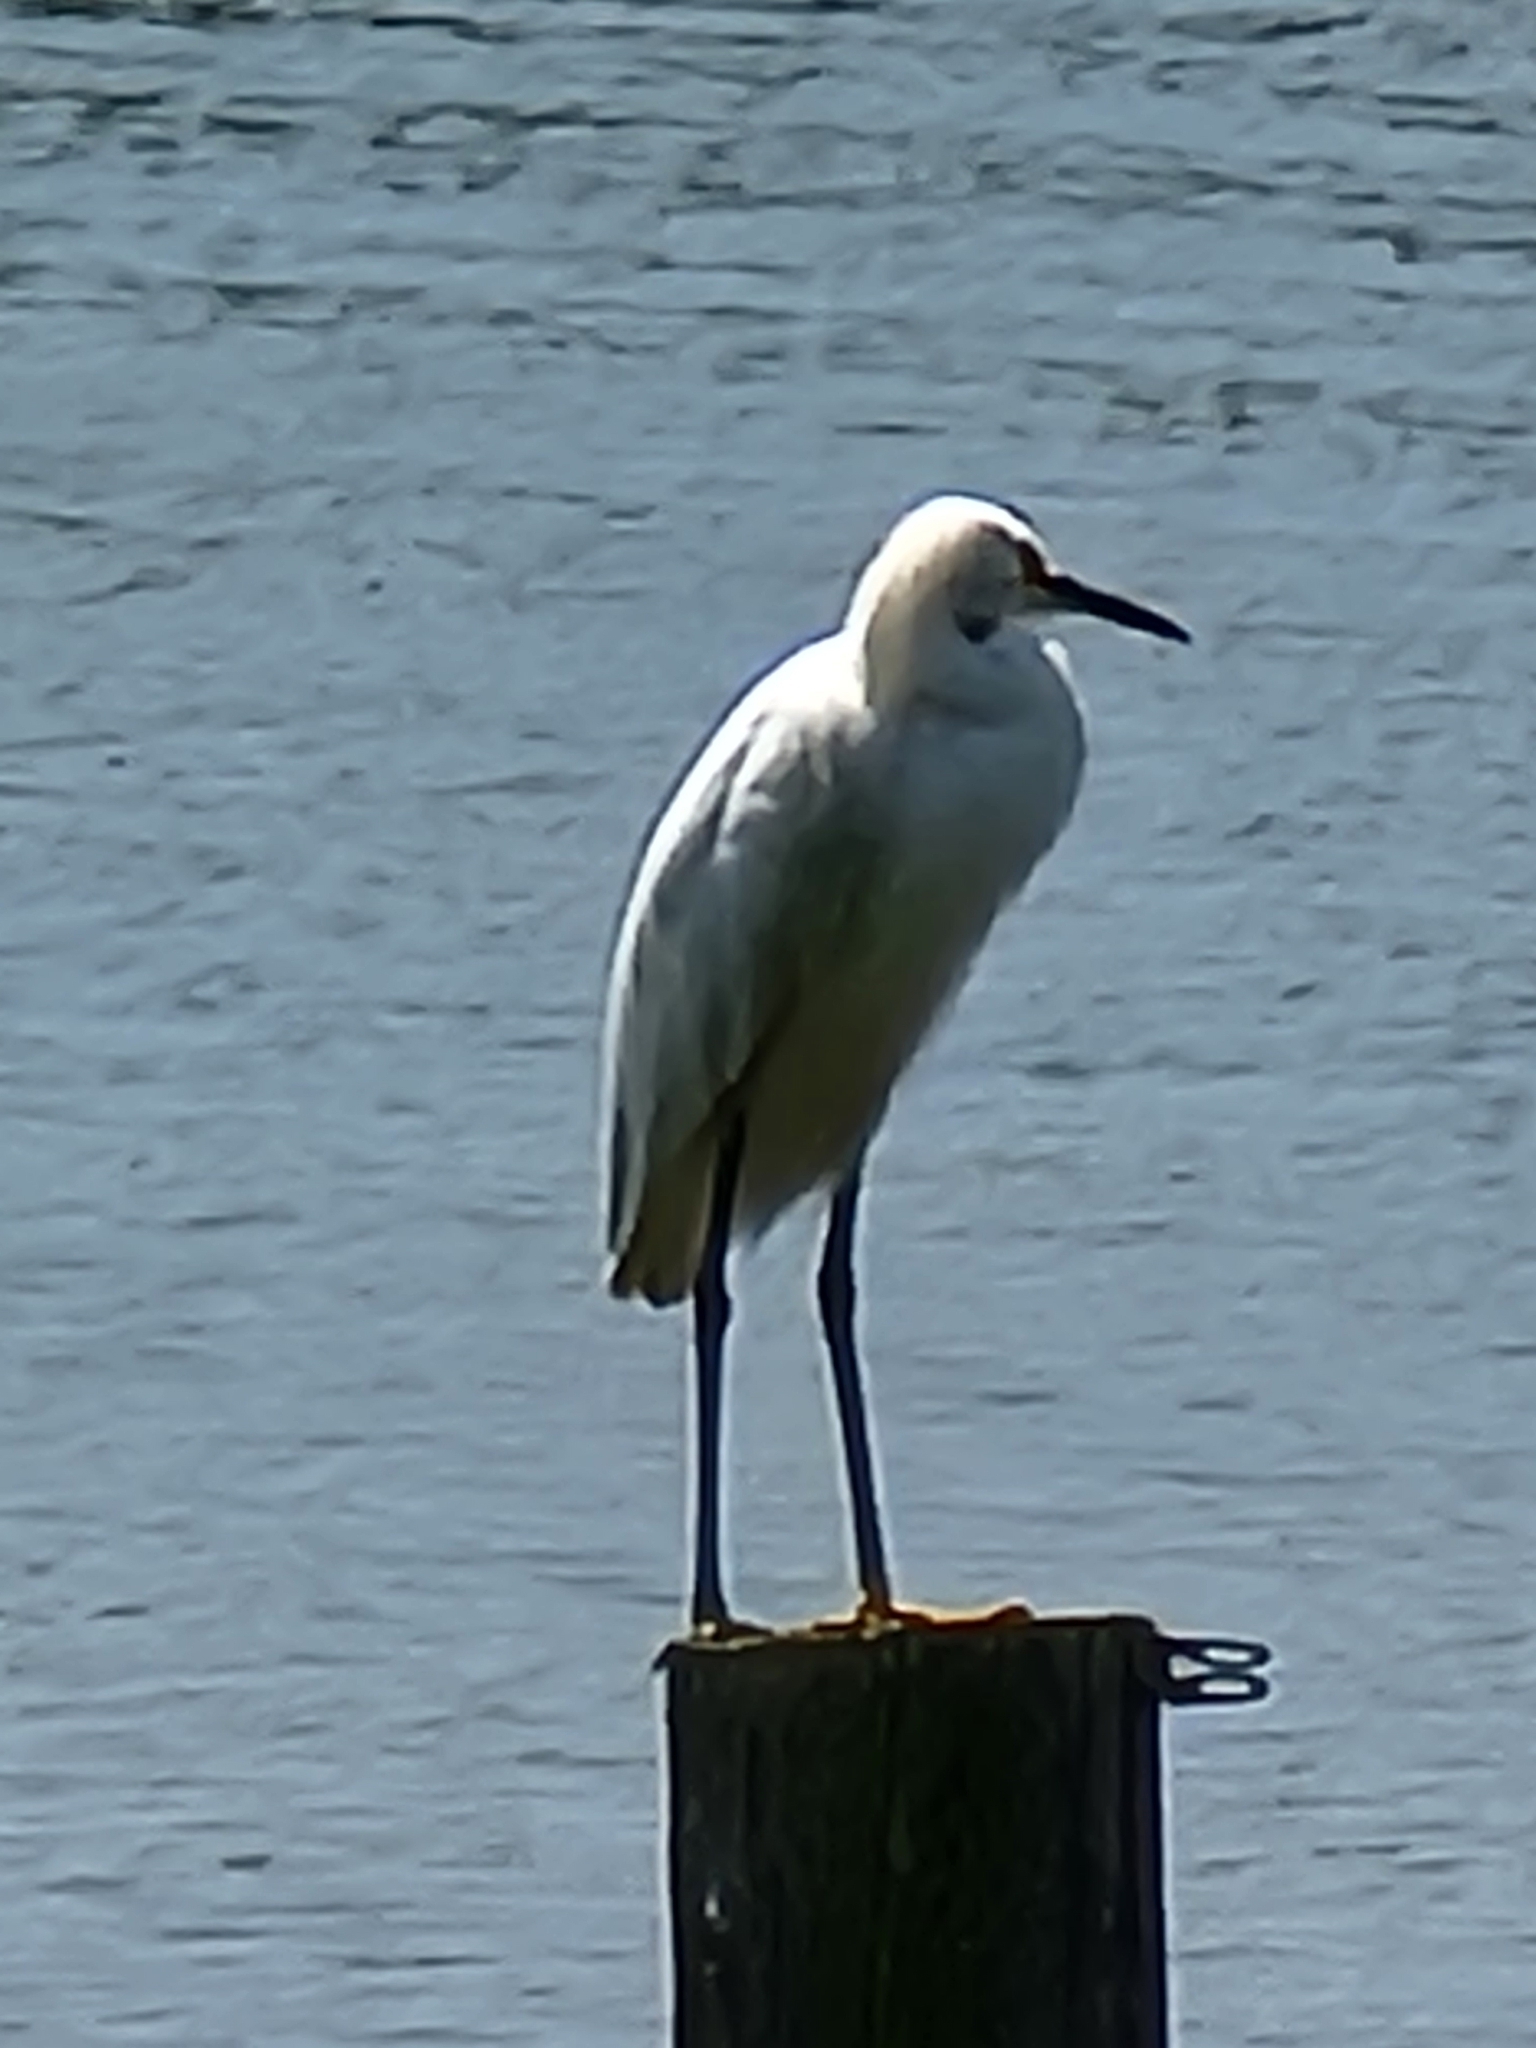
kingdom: Animalia
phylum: Chordata
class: Aves
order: Pelecaniformes
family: Ardeidae
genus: Egretta
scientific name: Egretta thula
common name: Snowy egret
